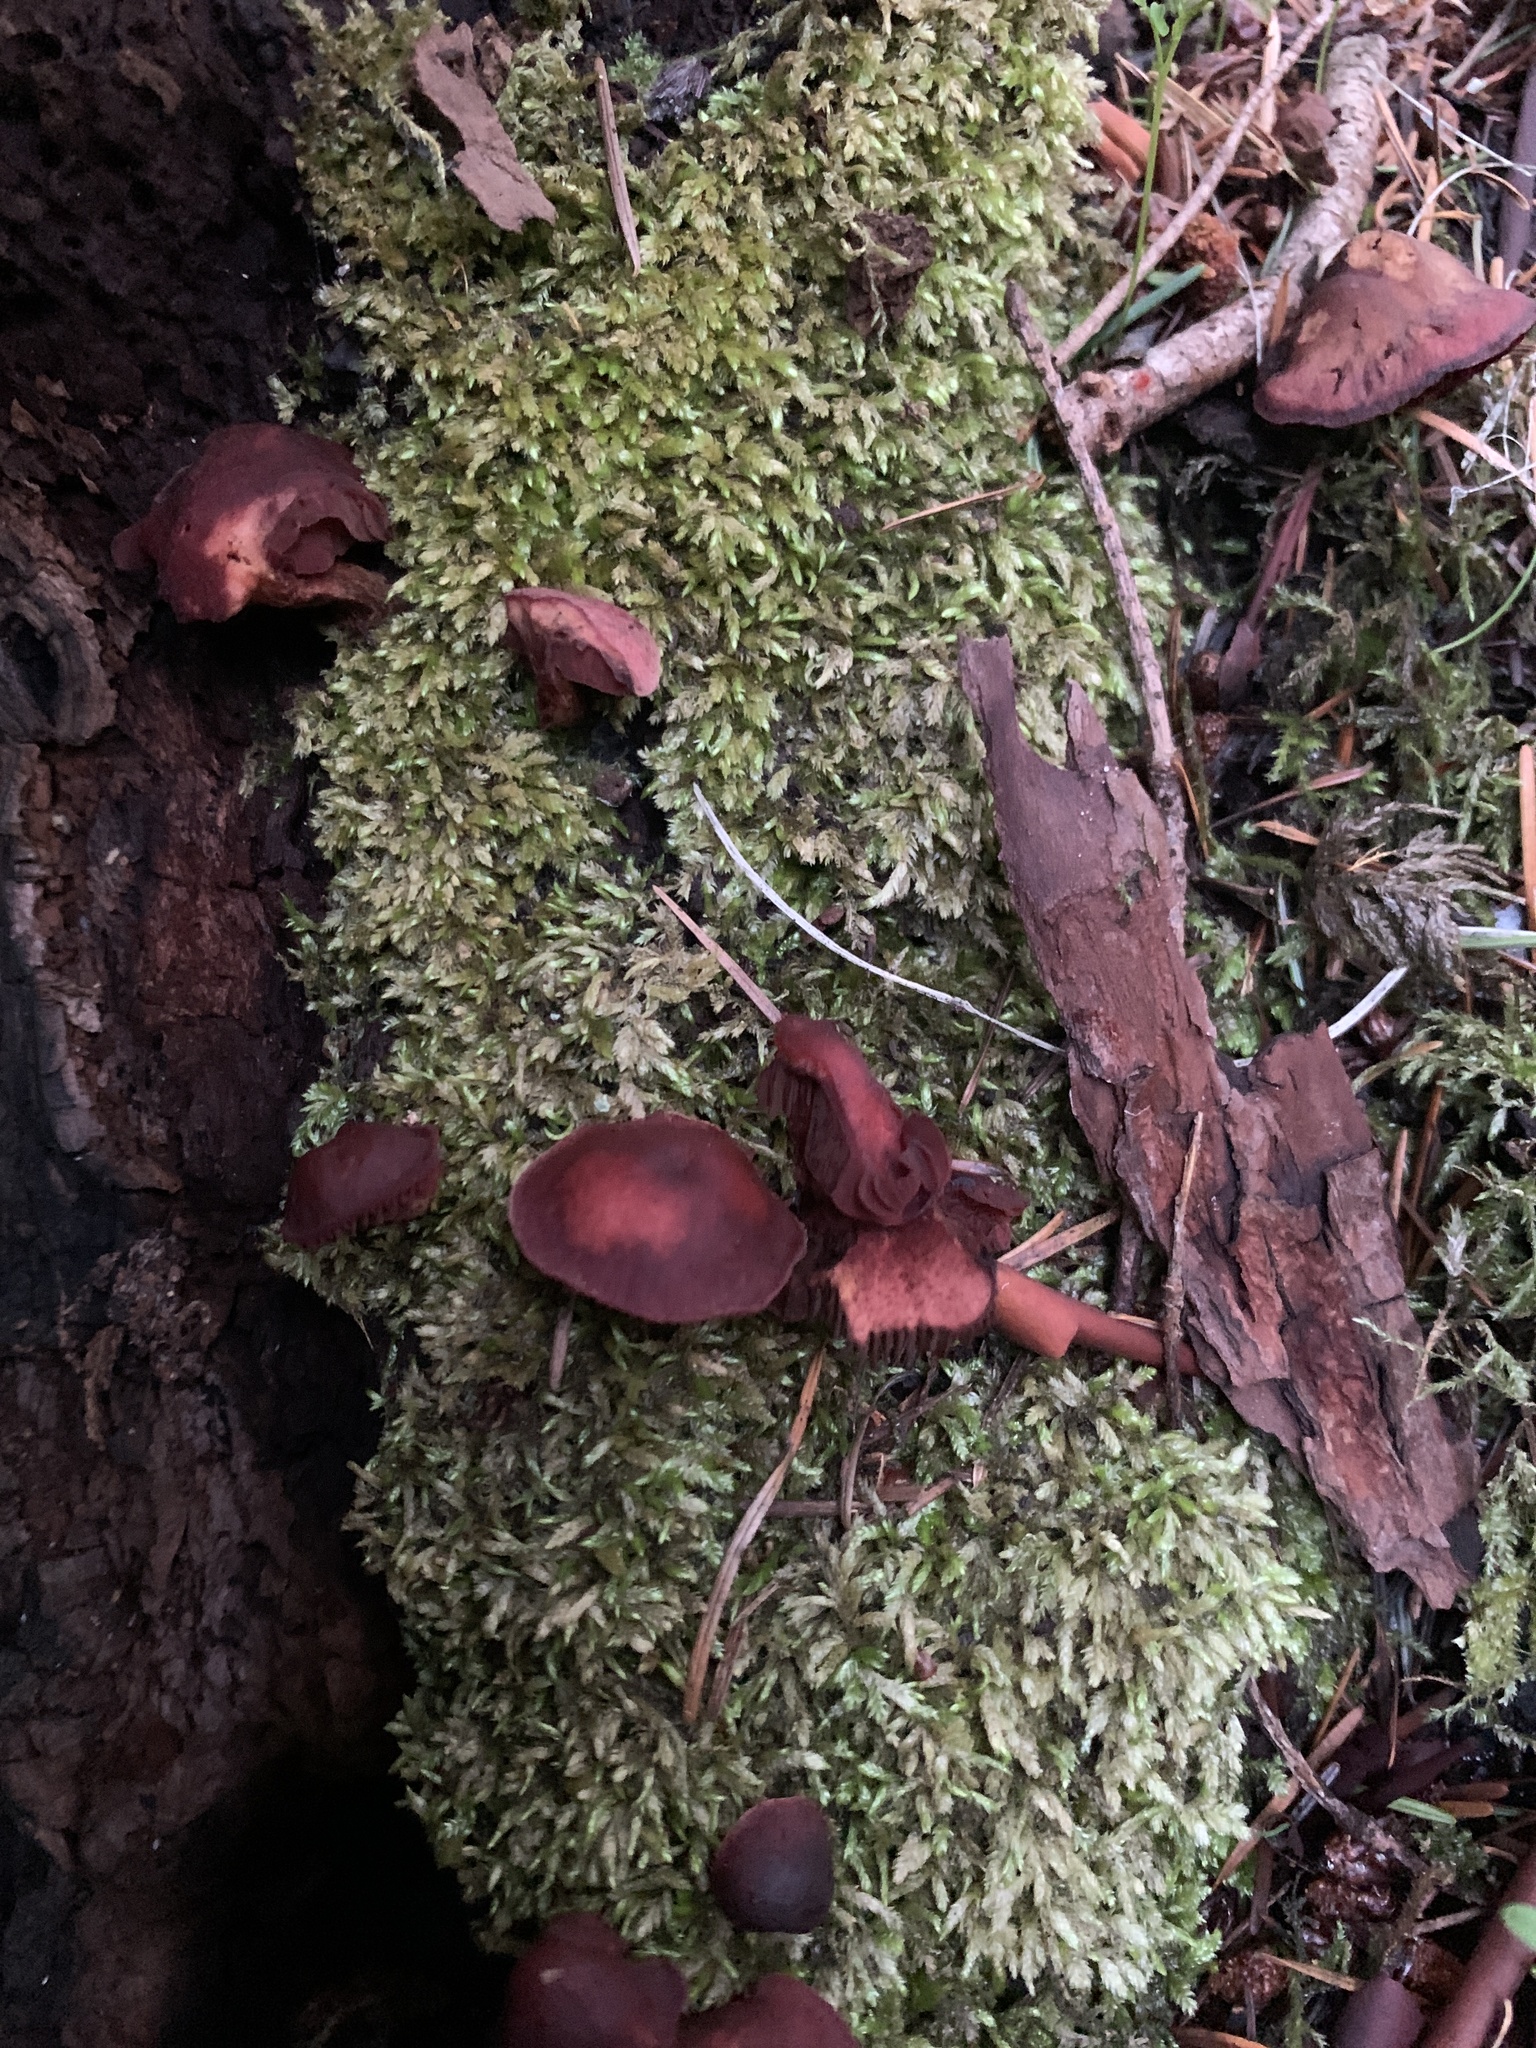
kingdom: Fungi
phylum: Basidiomycota
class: Agaricomycetes
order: Agaricales
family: Tubariaceae
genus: Tubaria
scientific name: Tubaria punicea
